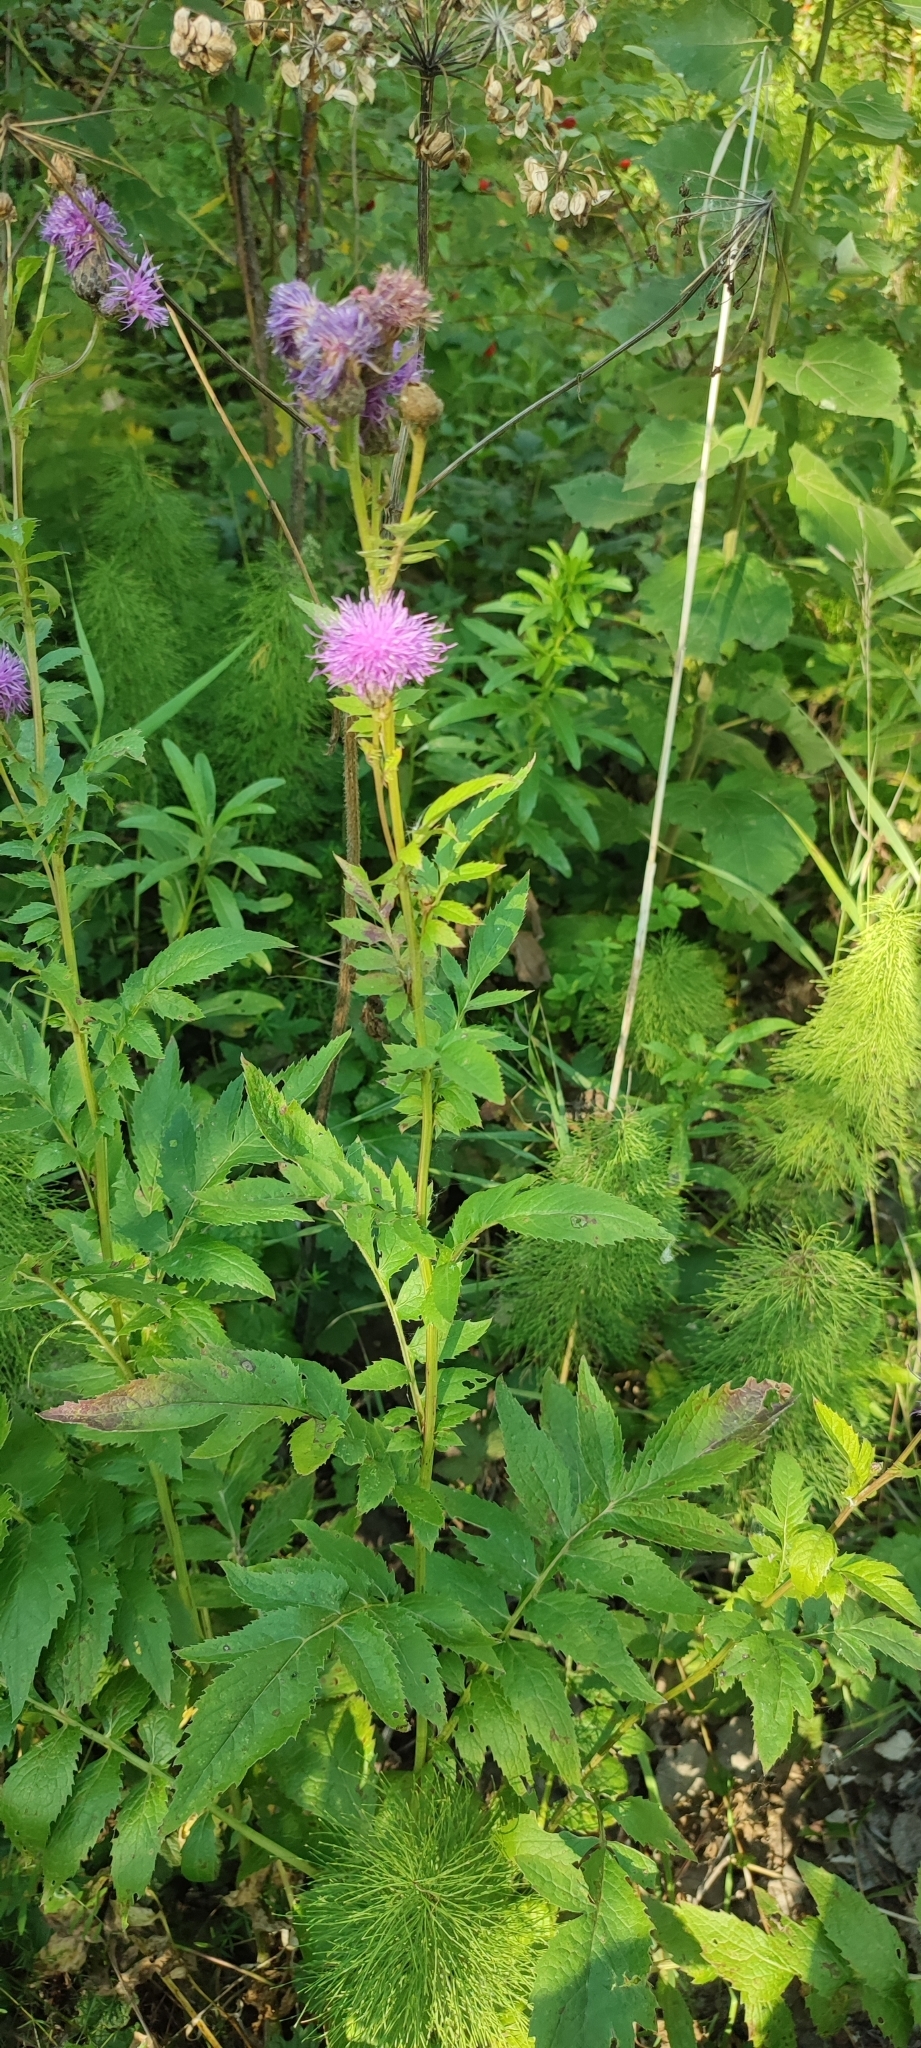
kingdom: Plantae
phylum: Tracheophyta
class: Magnoliopsida
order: Asterales
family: Asteraceae
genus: Serratula
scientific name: Serratula coronata
